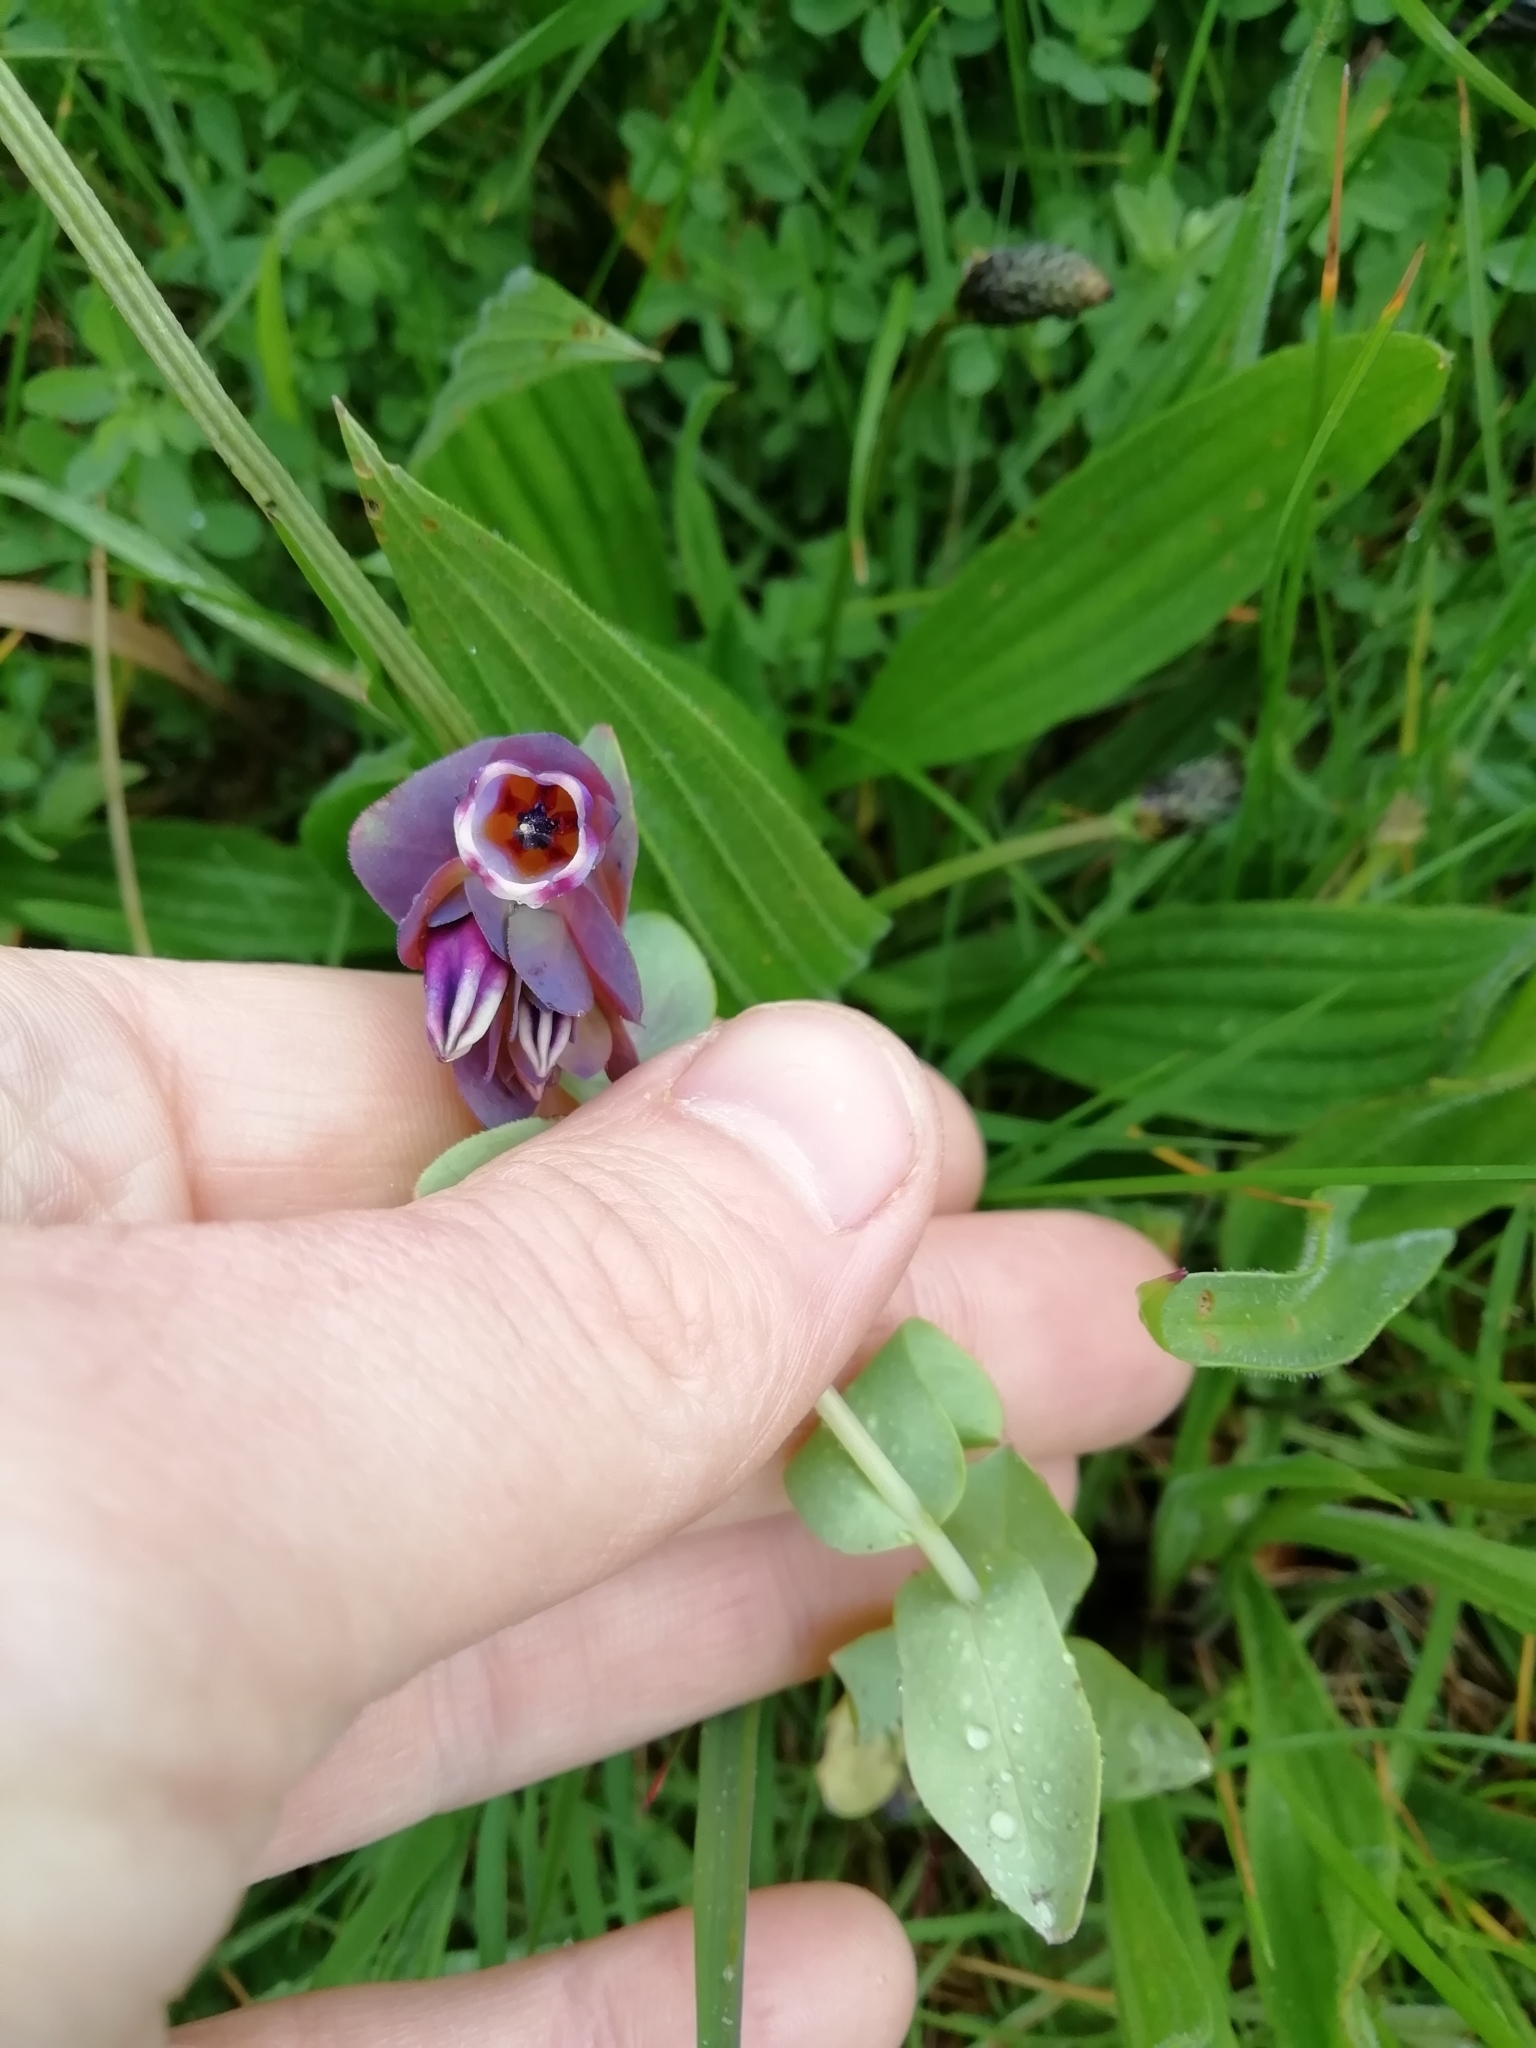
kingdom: Plantae
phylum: Tracheophyta
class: Magnoliopsida
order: Boraginales
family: Boraginaceae
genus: Cerinthe
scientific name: Cerinthe major
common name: Greater honeywort
